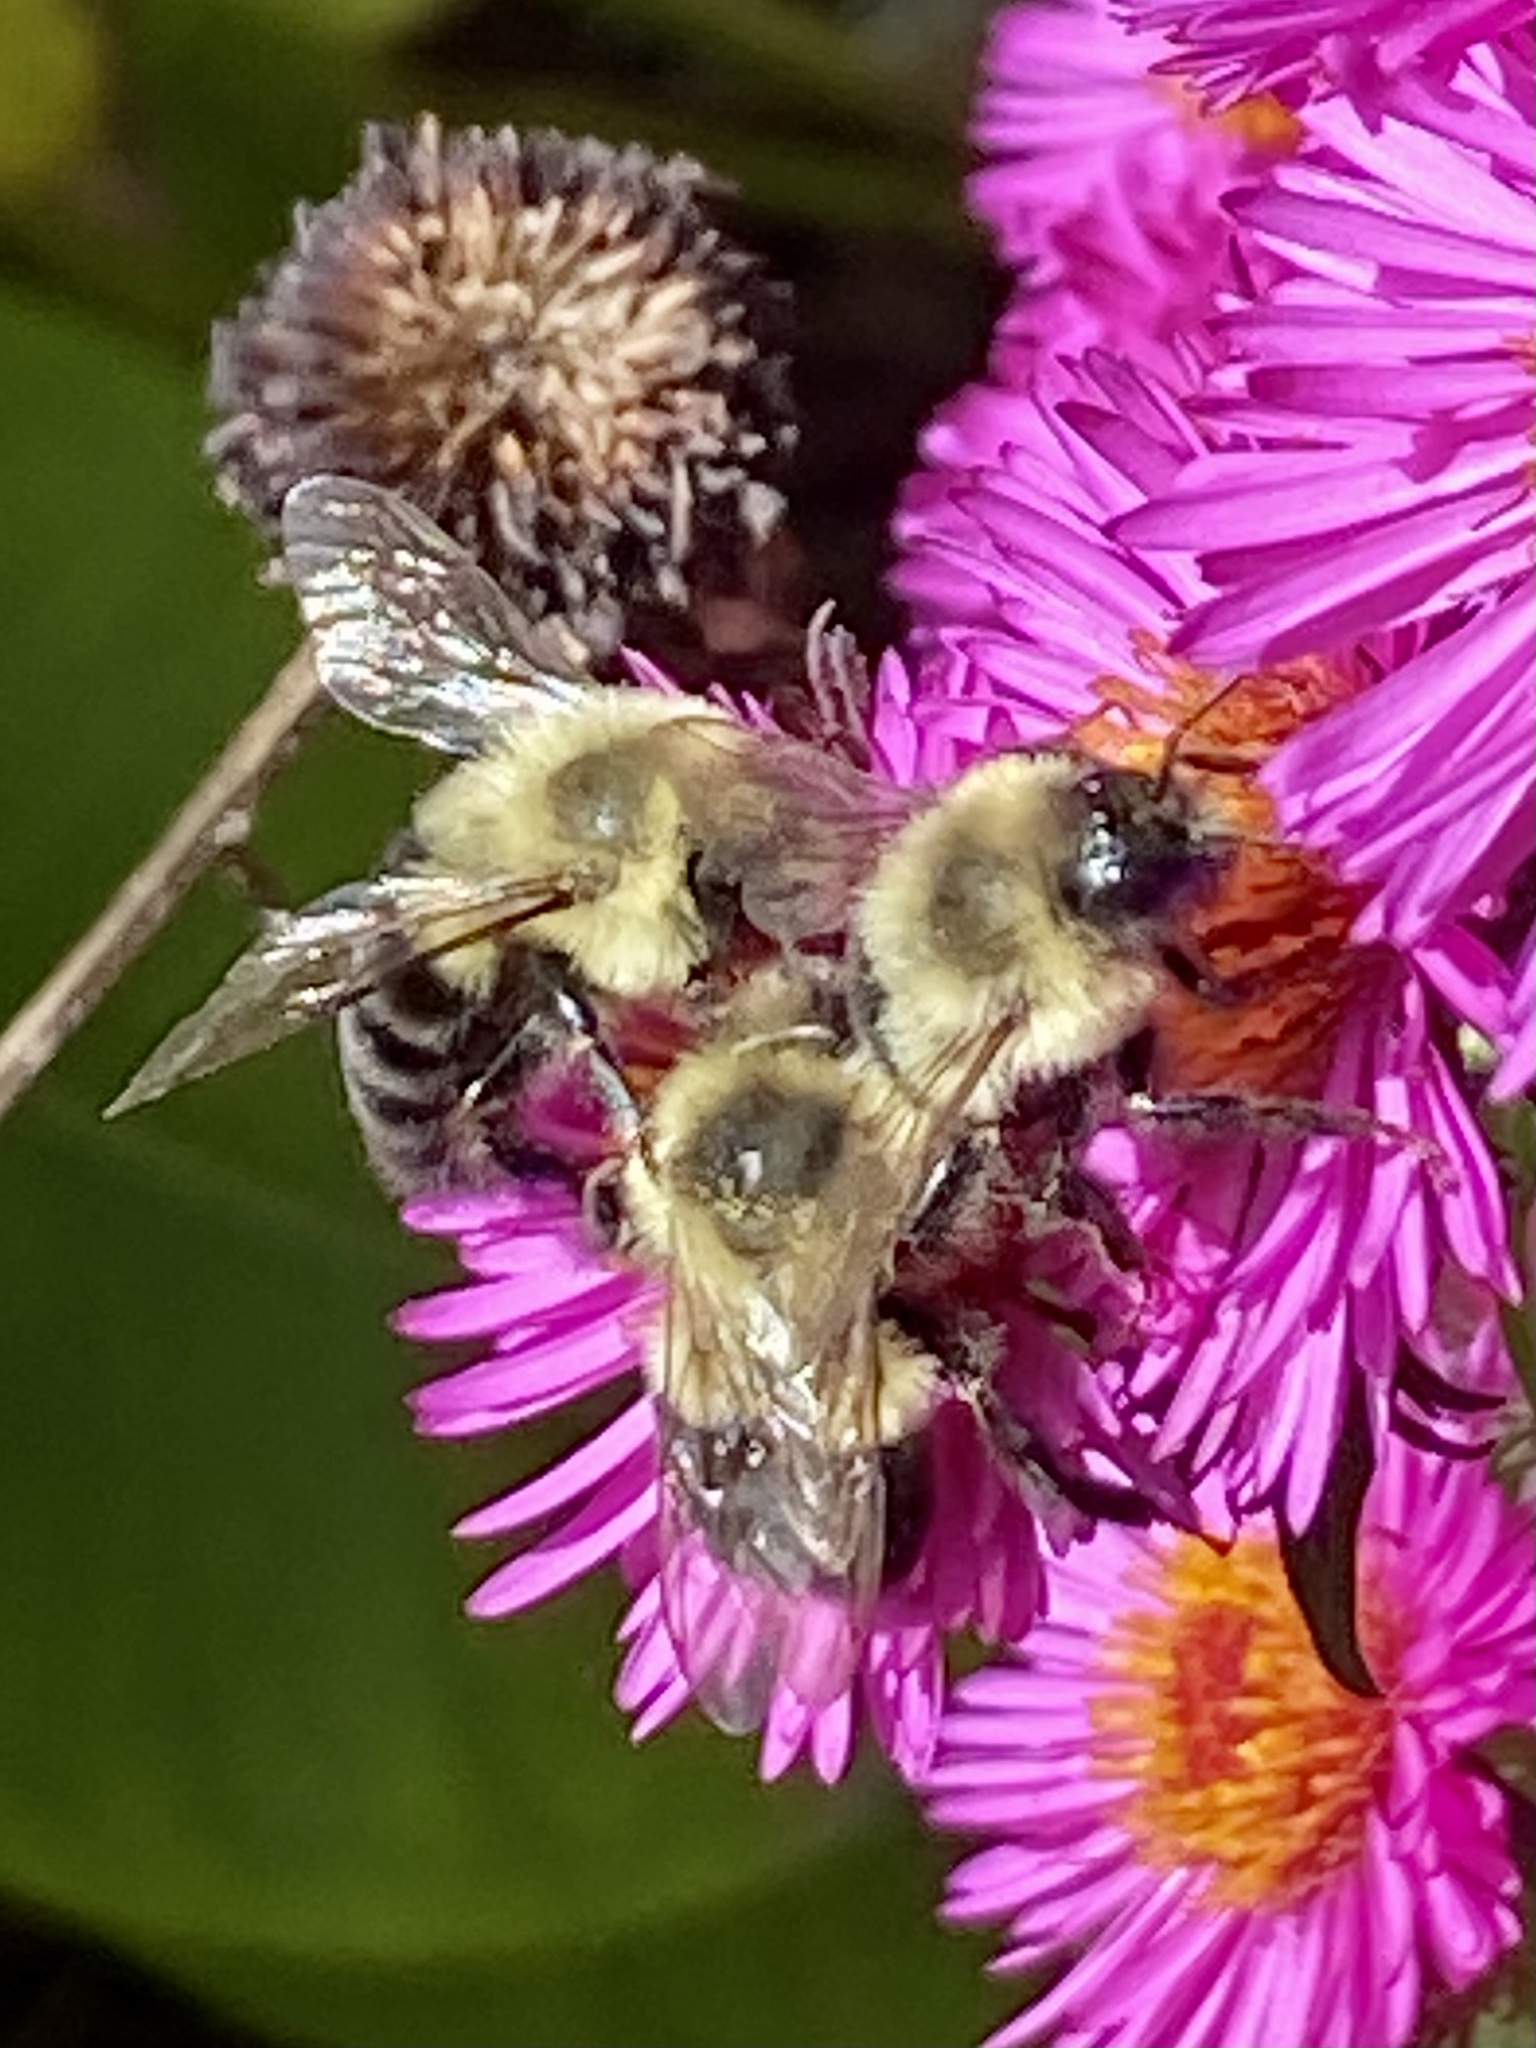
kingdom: Animalia
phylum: Arthropoda
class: Insecta
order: Hymenoptera
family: Apidae
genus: Bombus
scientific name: Bombus impatiens
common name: Common eastern bumble bee
